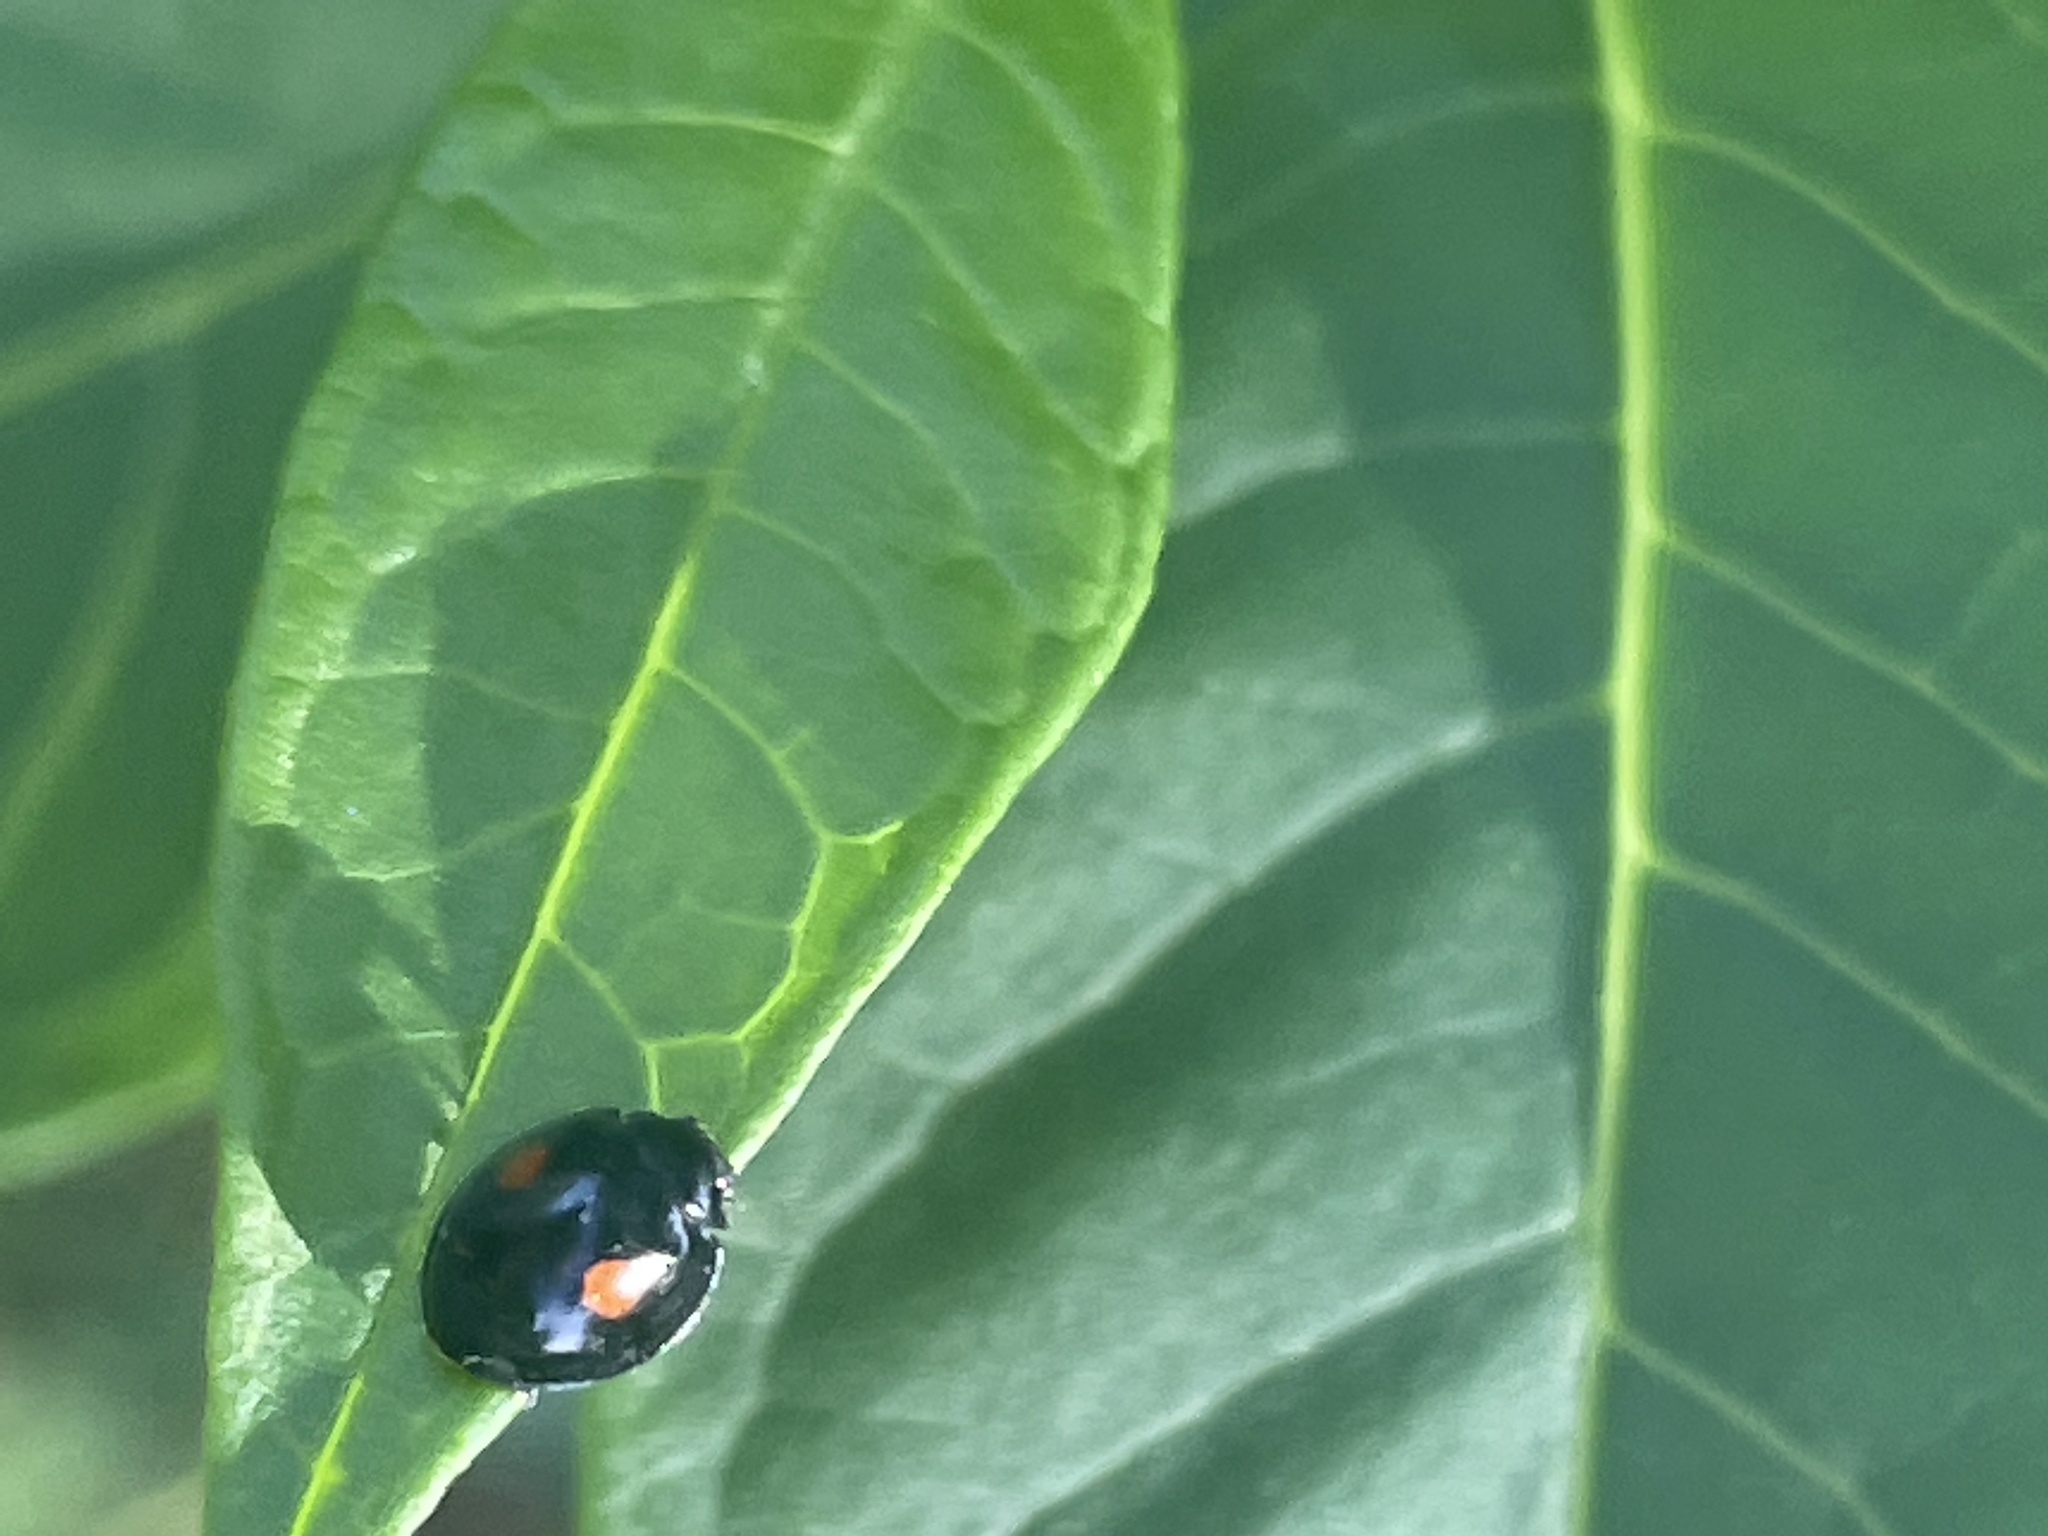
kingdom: Animalia
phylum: Arthropoda
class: Insecta
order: Coleoptera
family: Coccinellidae
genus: Chilocorus
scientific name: Chilocorus stigma
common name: Twicestabbed lady beetle
